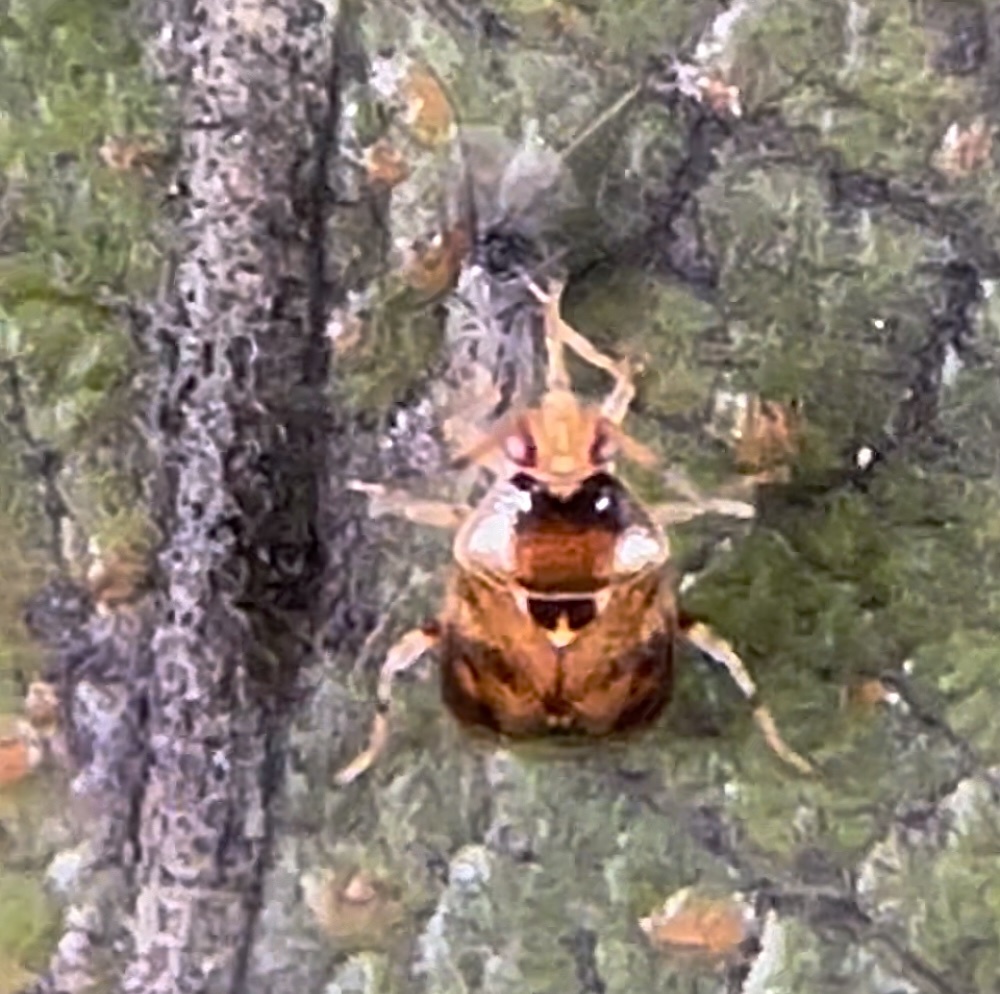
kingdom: Animalia
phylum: Arthropoda
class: Insecta
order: Hemiptera
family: Miridae
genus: Deraeocoris
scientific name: Deraeocoris lutescens
